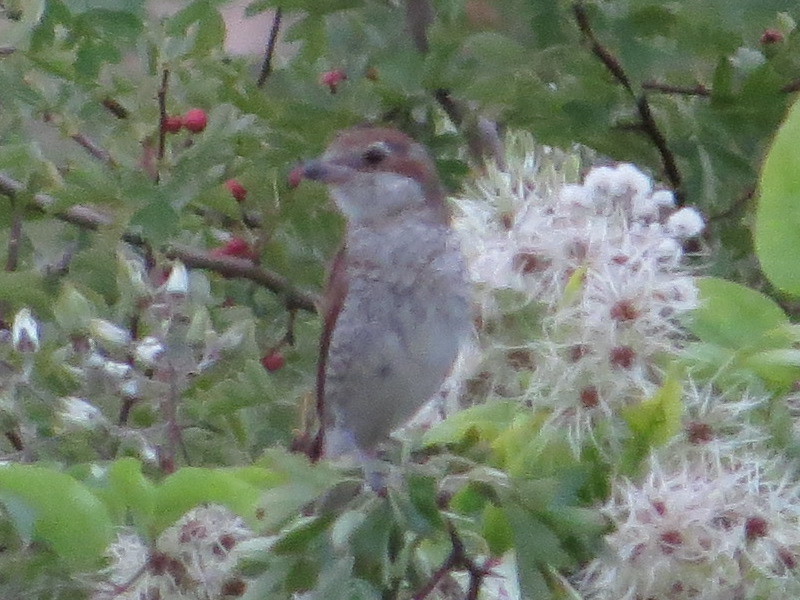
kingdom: Animalia
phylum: Chordata
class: Aves
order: Passeriformes
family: Laniidae
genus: Lanius
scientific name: Lanius collurio
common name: Red-backed shrike
